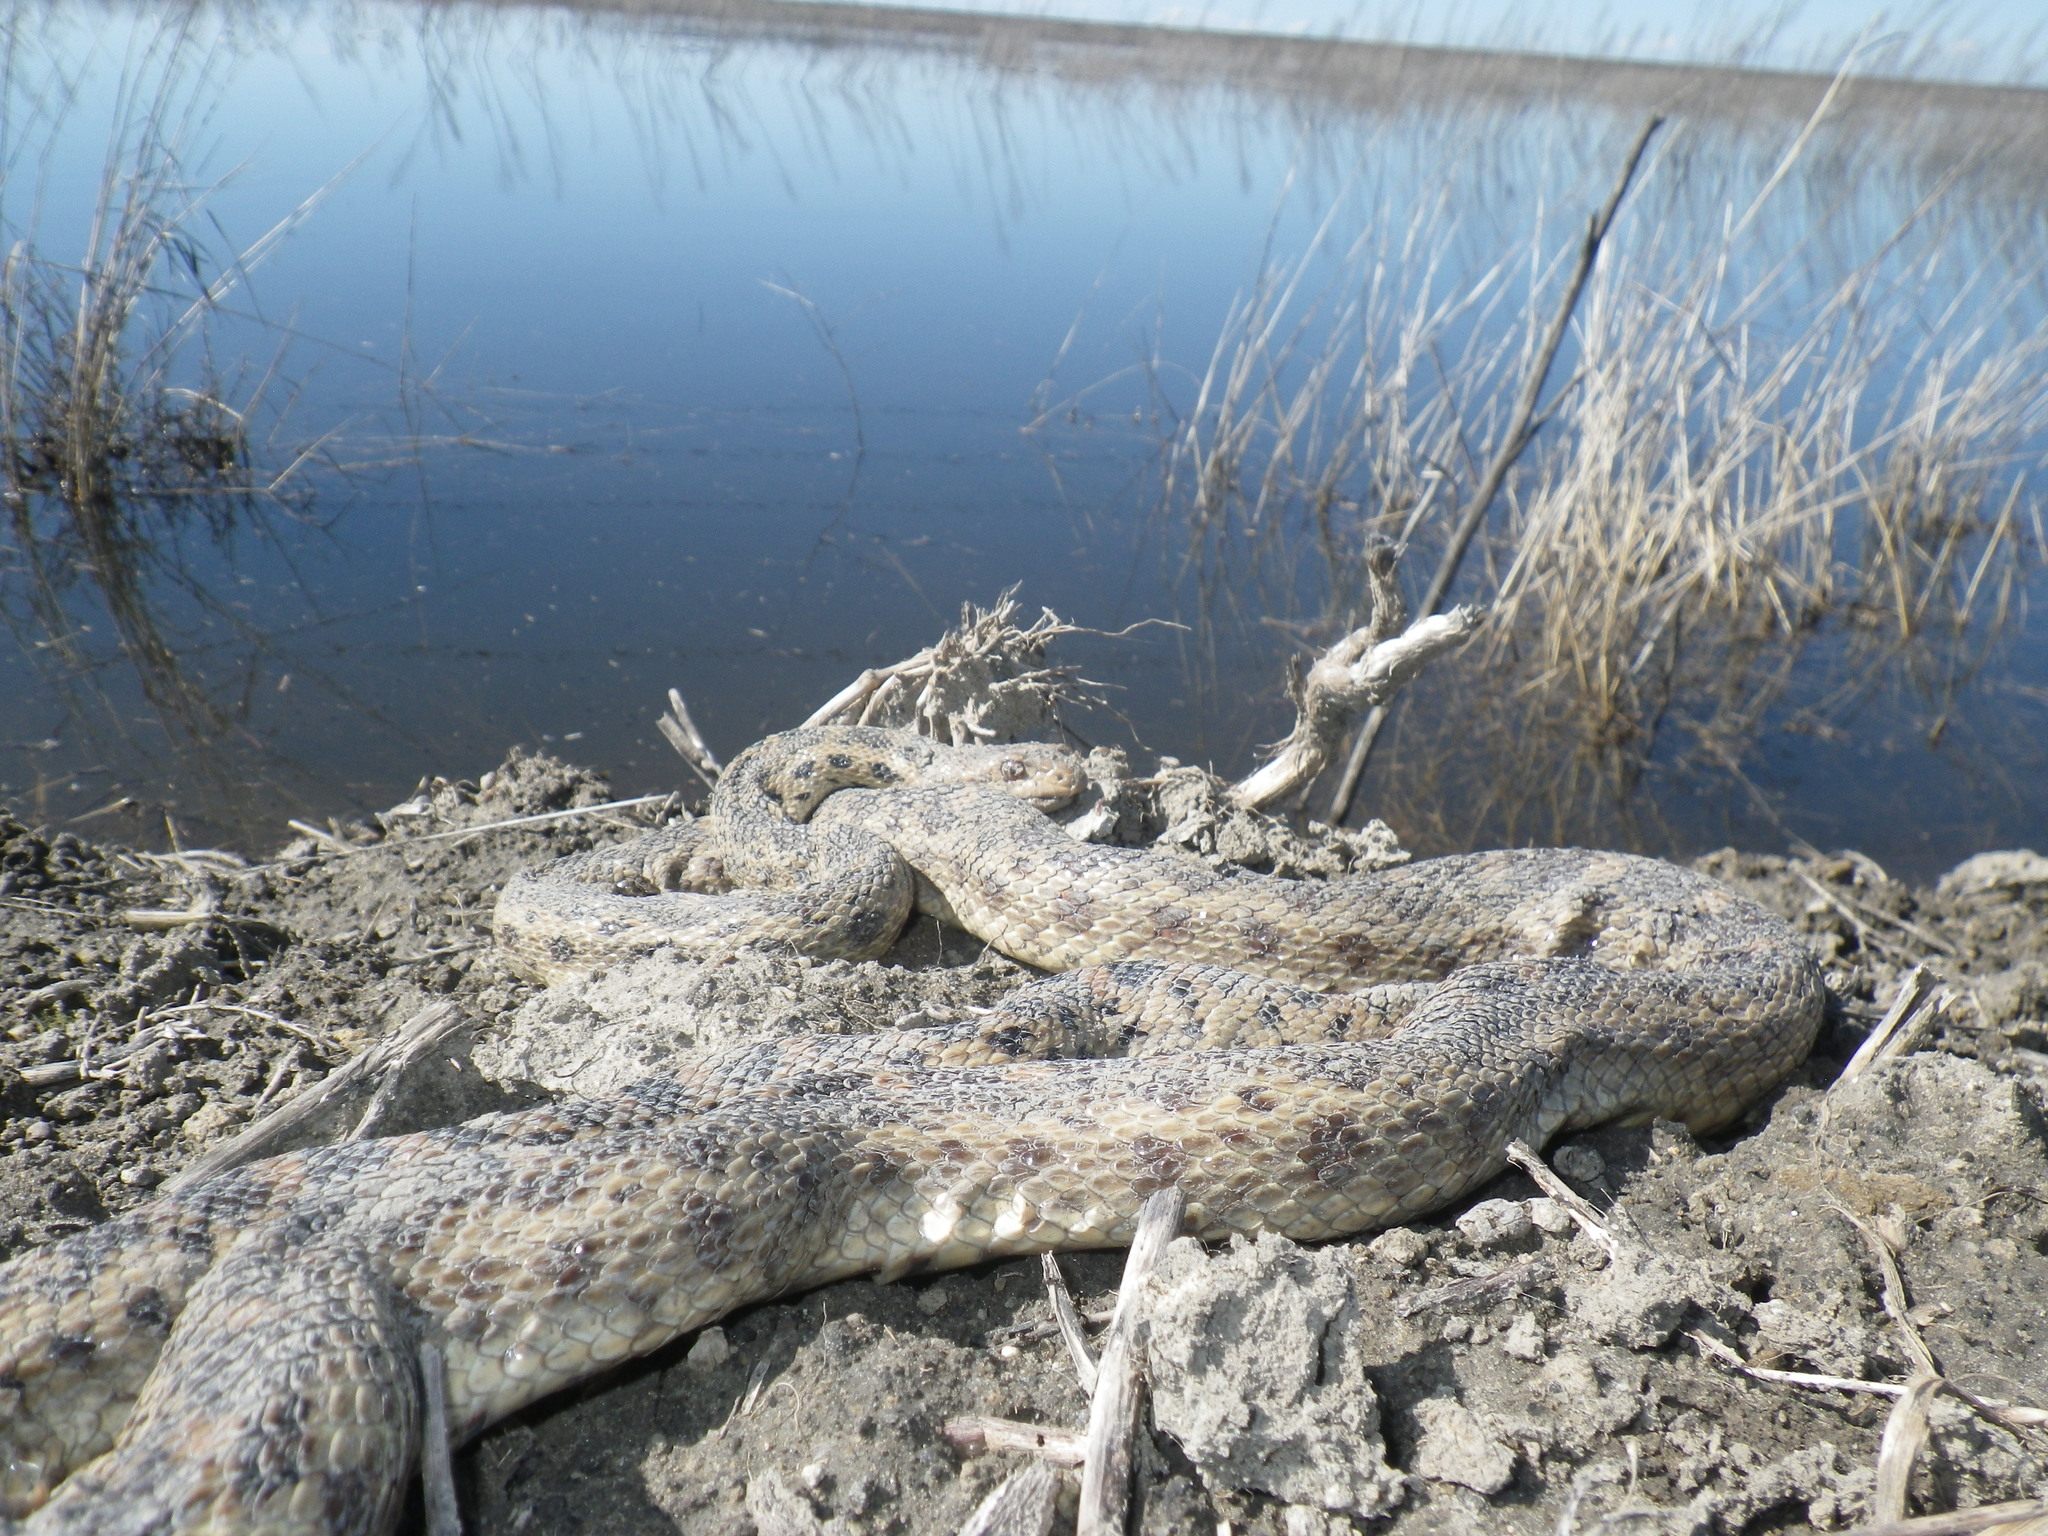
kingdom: Animalia
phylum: Chordata
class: Squamata
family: Colubridae
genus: Pituophis
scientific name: Pituophis catenifer
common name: Gopher snake
